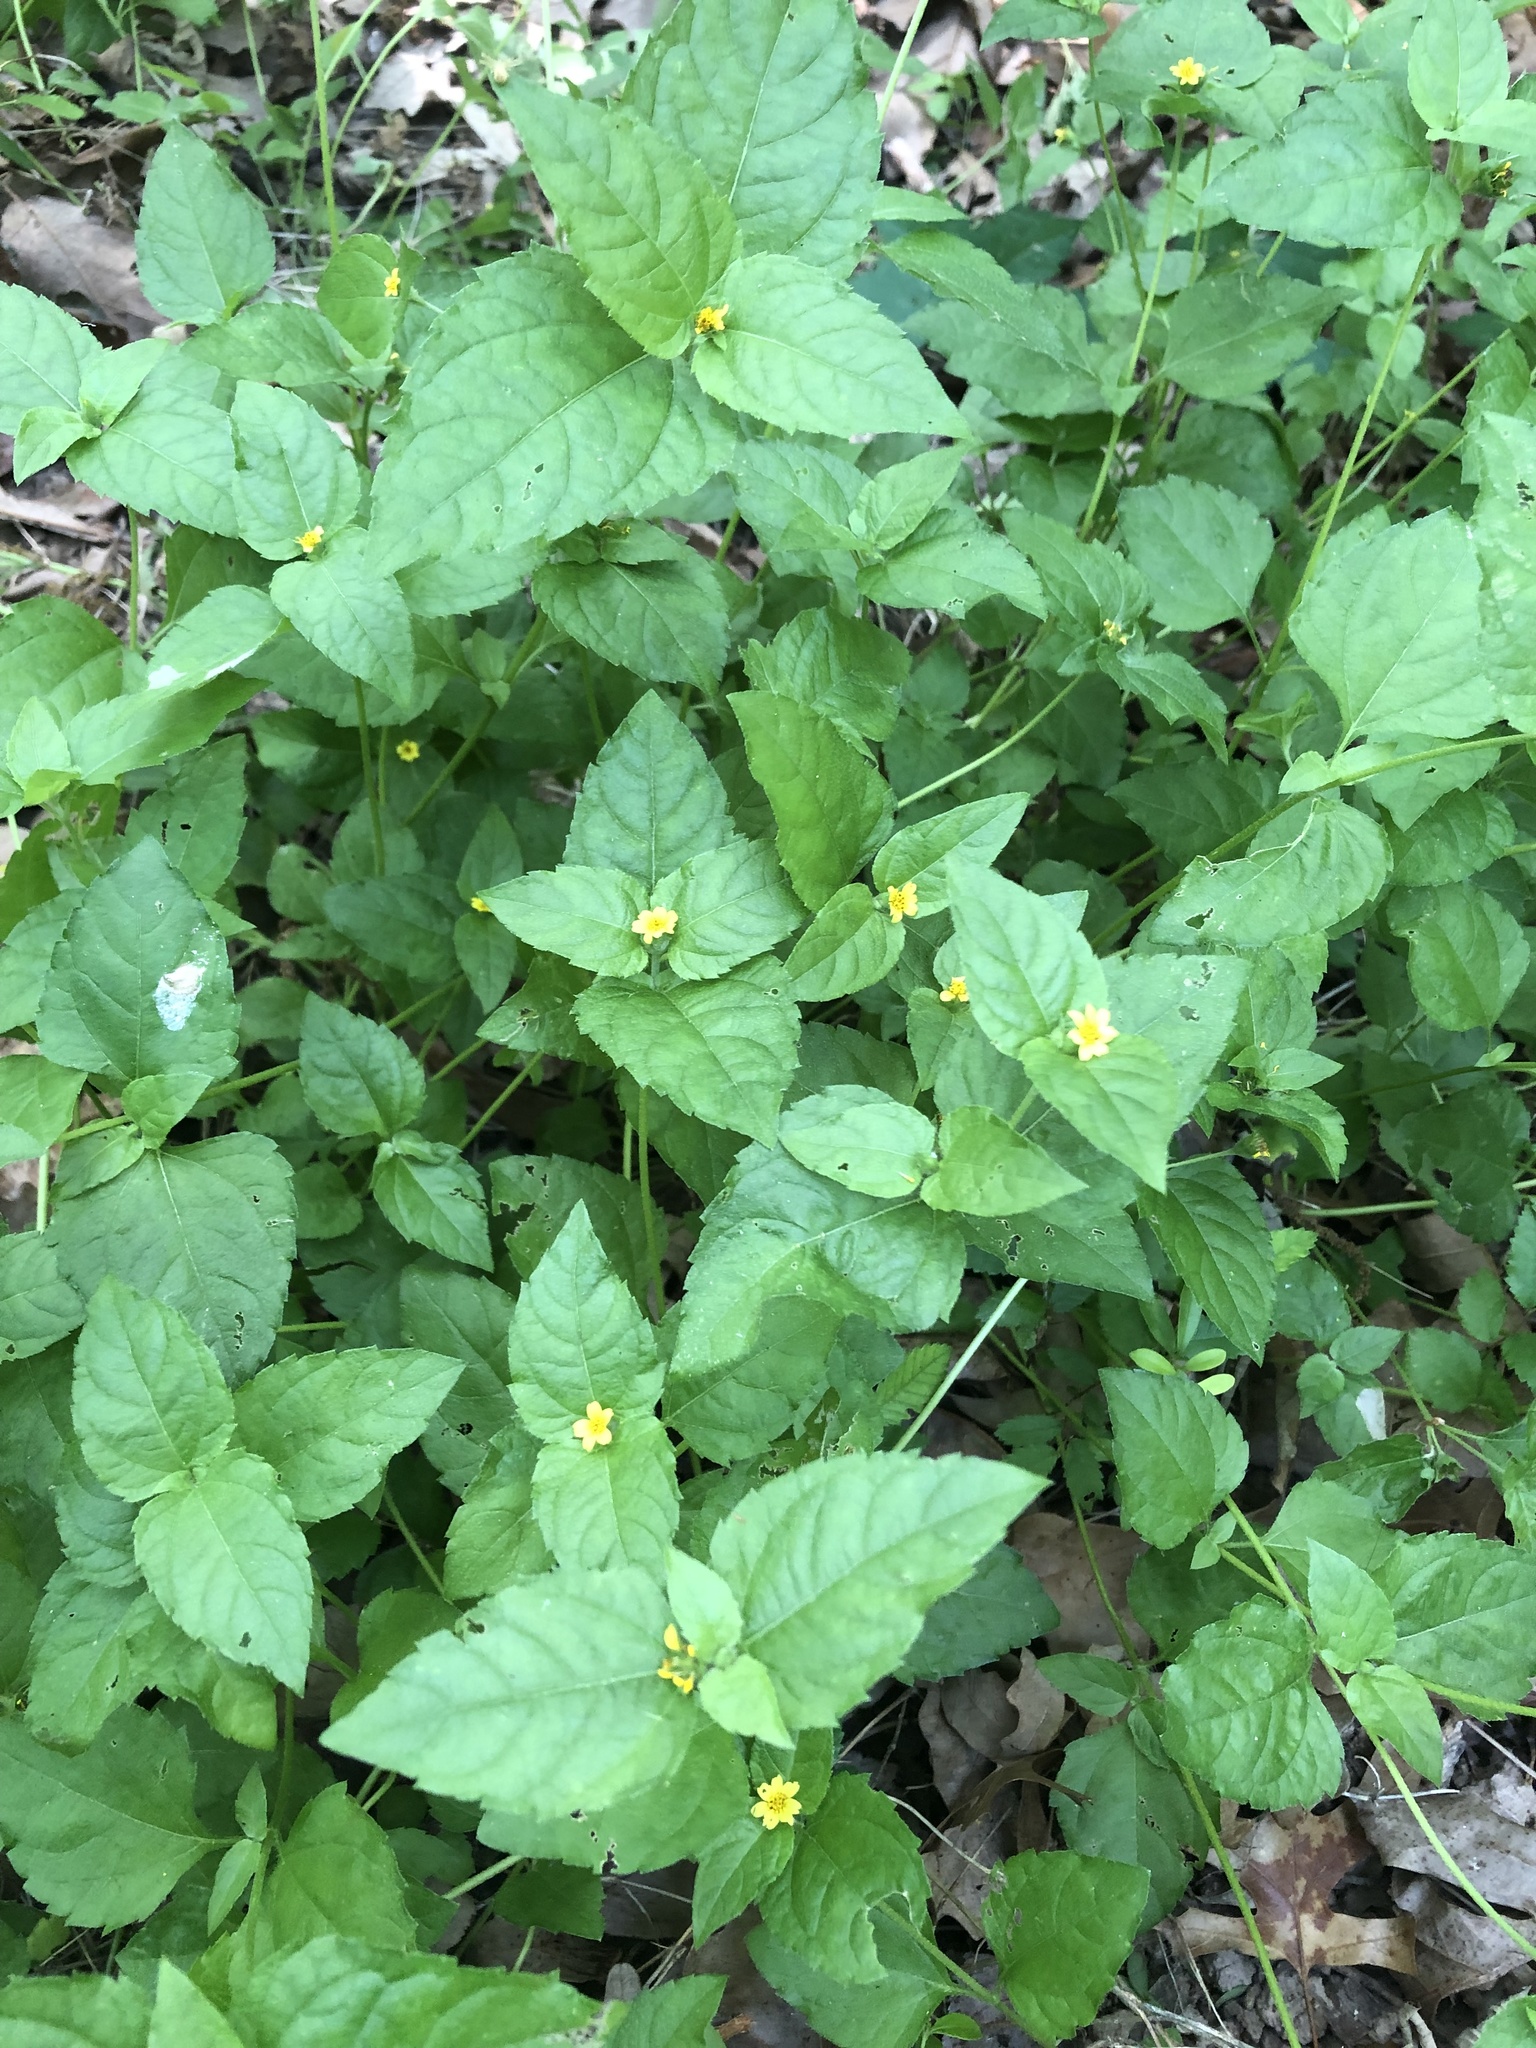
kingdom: Plantae
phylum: Tracheophyta
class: Magnoliopsida
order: Asterales
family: Asteraceae
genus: Calyptocarpus
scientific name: Calyptocarpus vialis
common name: Straggler daisy
